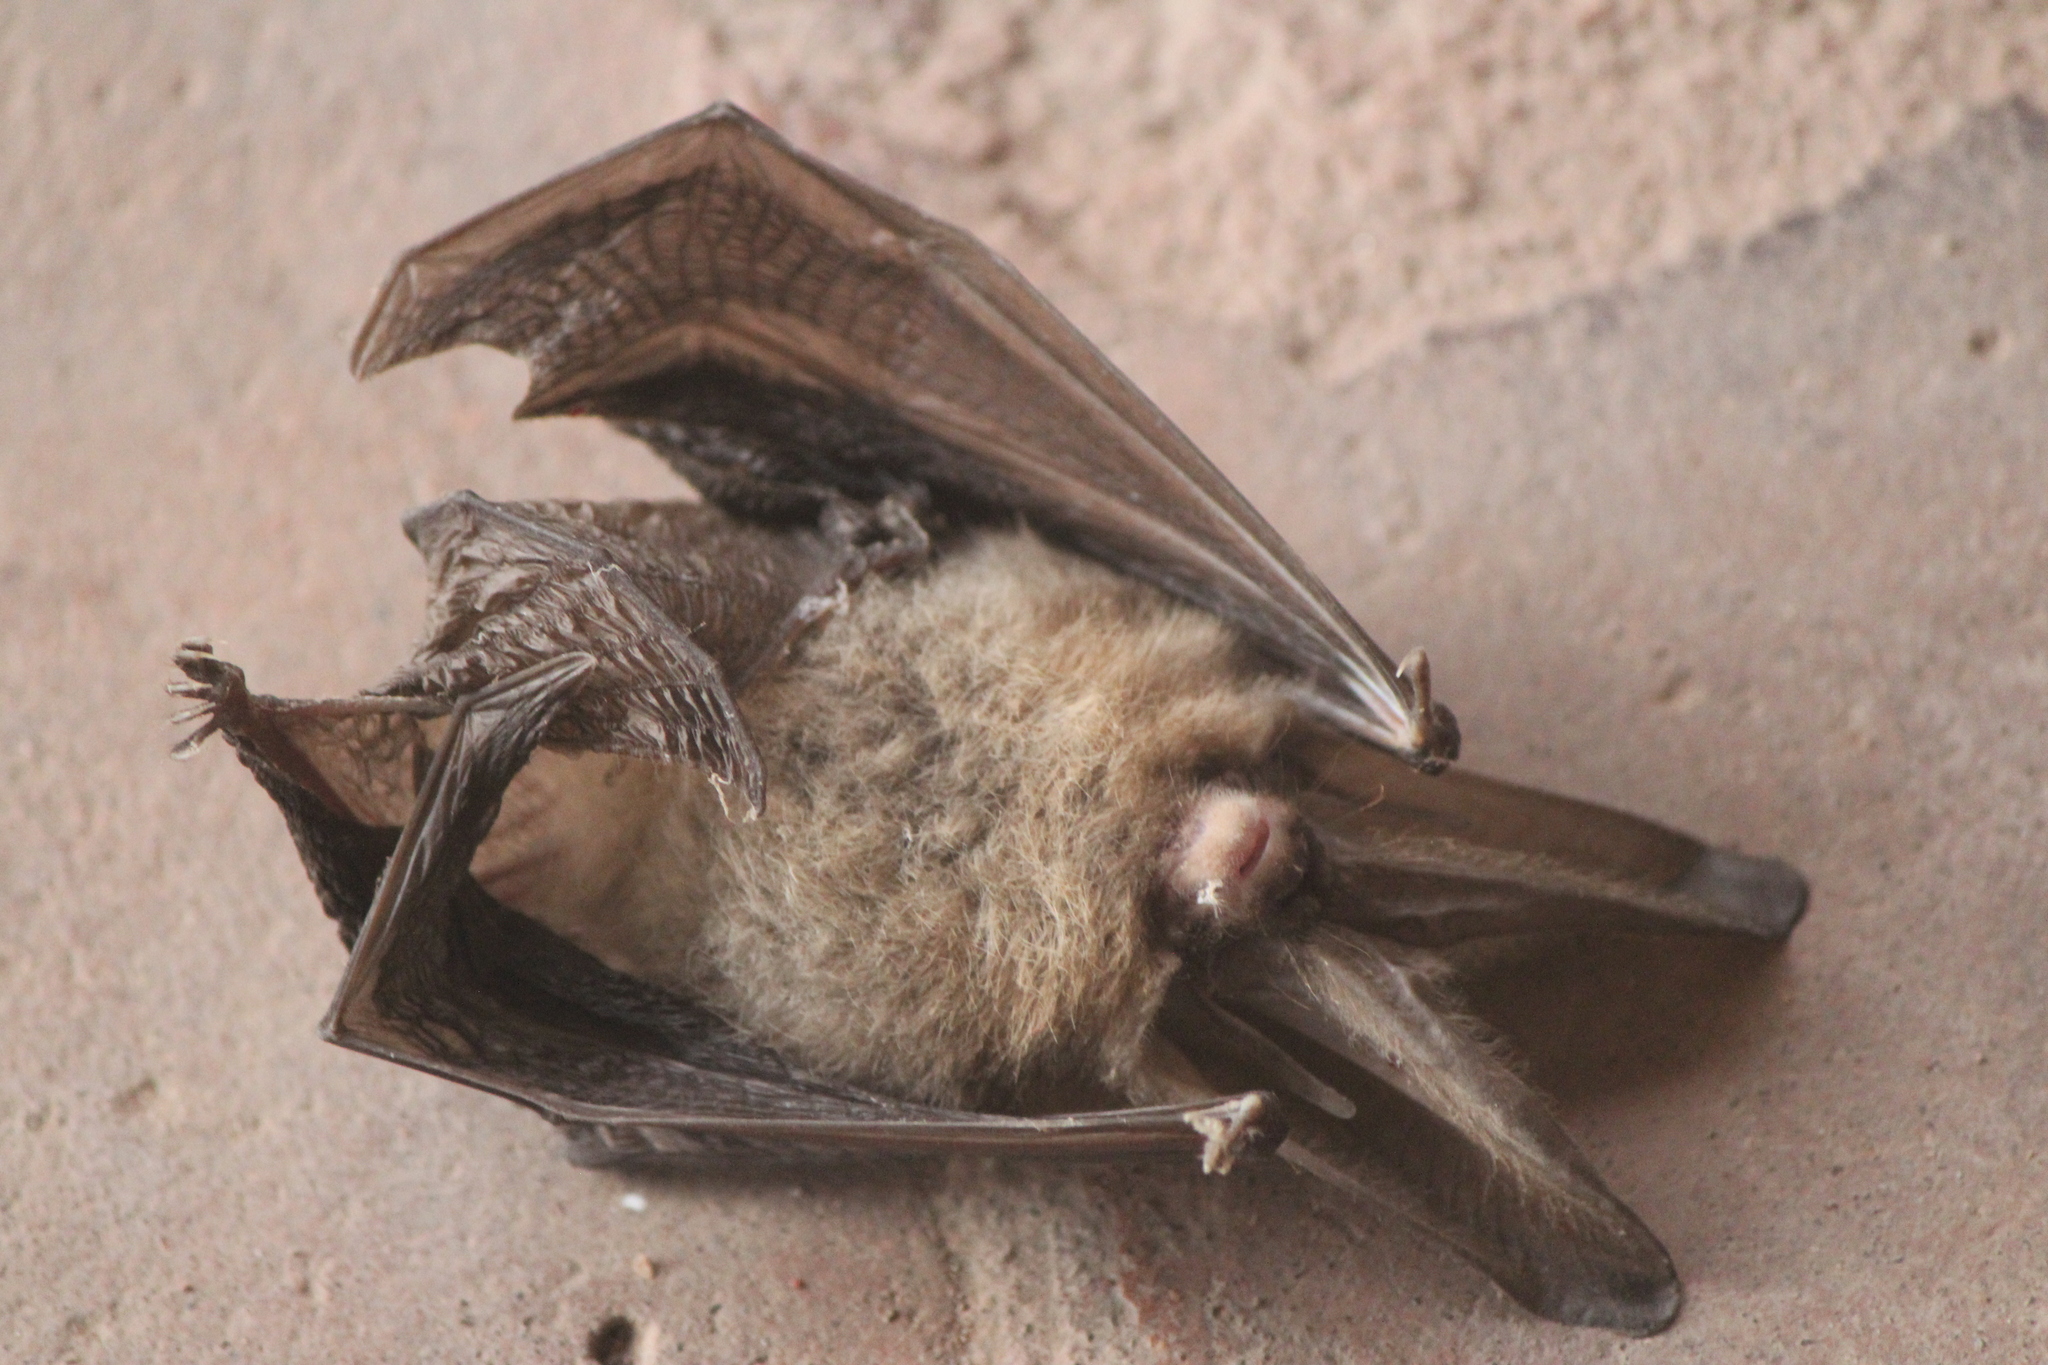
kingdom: Animalia
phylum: Chordata
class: Mammalia
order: Chiroptera
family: Vespertilionidae
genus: Corynorhinus
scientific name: Corynorhinus townsendii
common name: Townsend's big-eared bat
